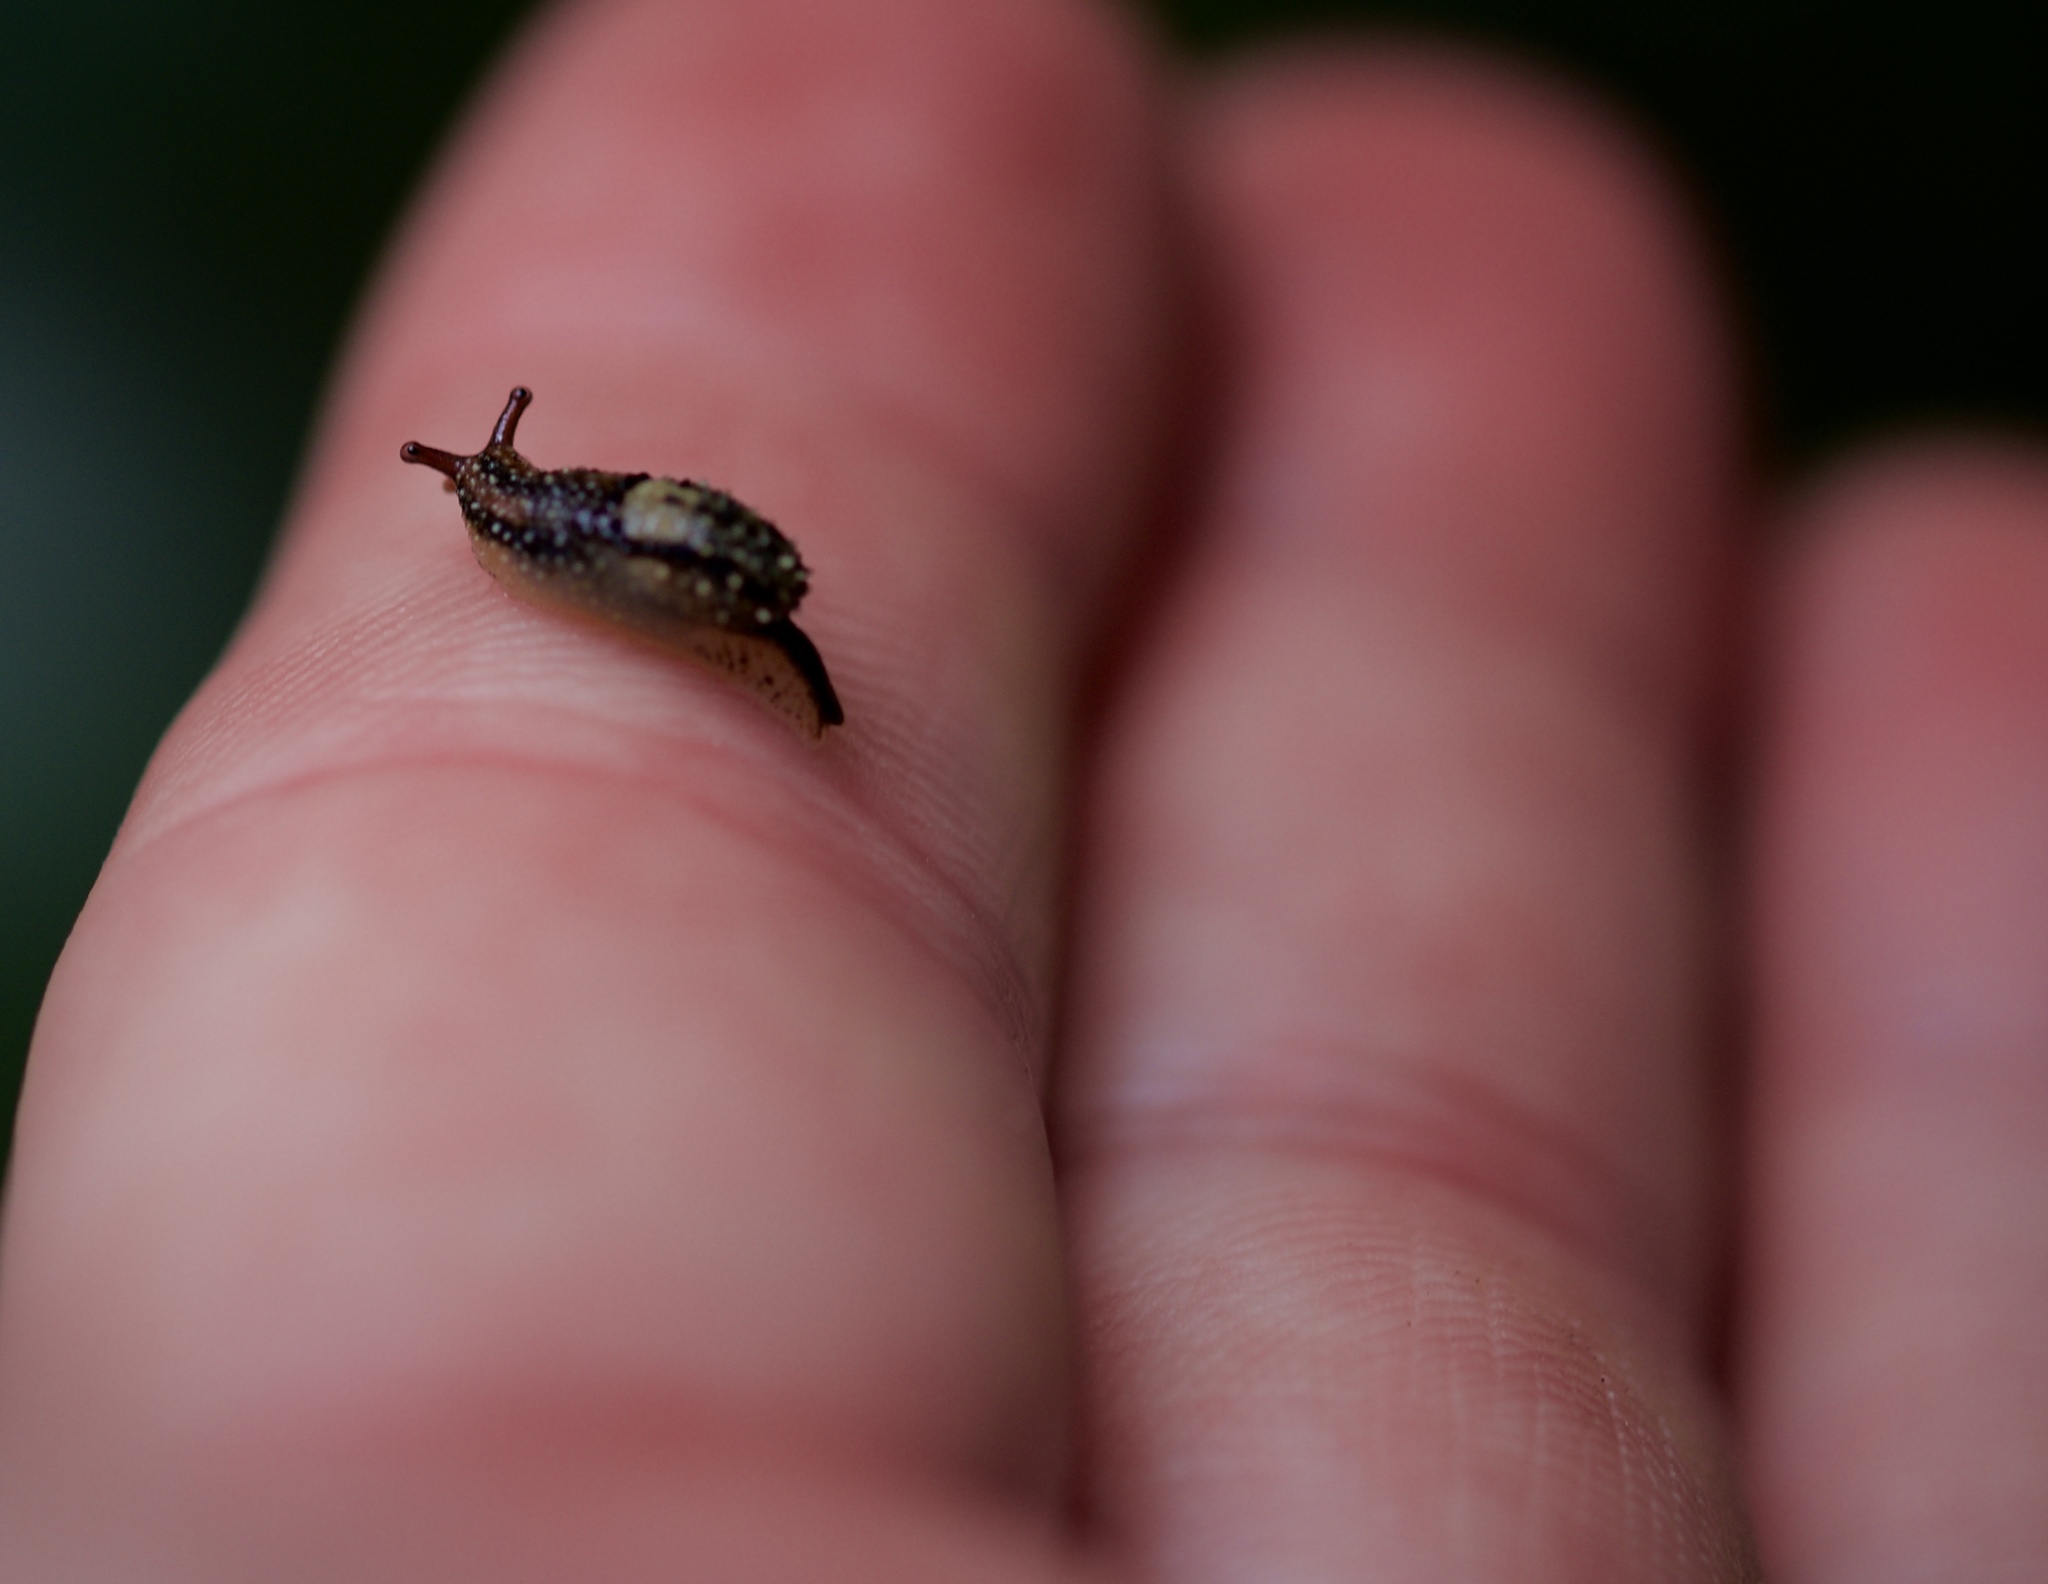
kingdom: Animalia
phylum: Mollusca
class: Gastropoda
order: Stylommatophora
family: Ariophantidae
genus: Microparmarion
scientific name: Microparmarion simrothi
